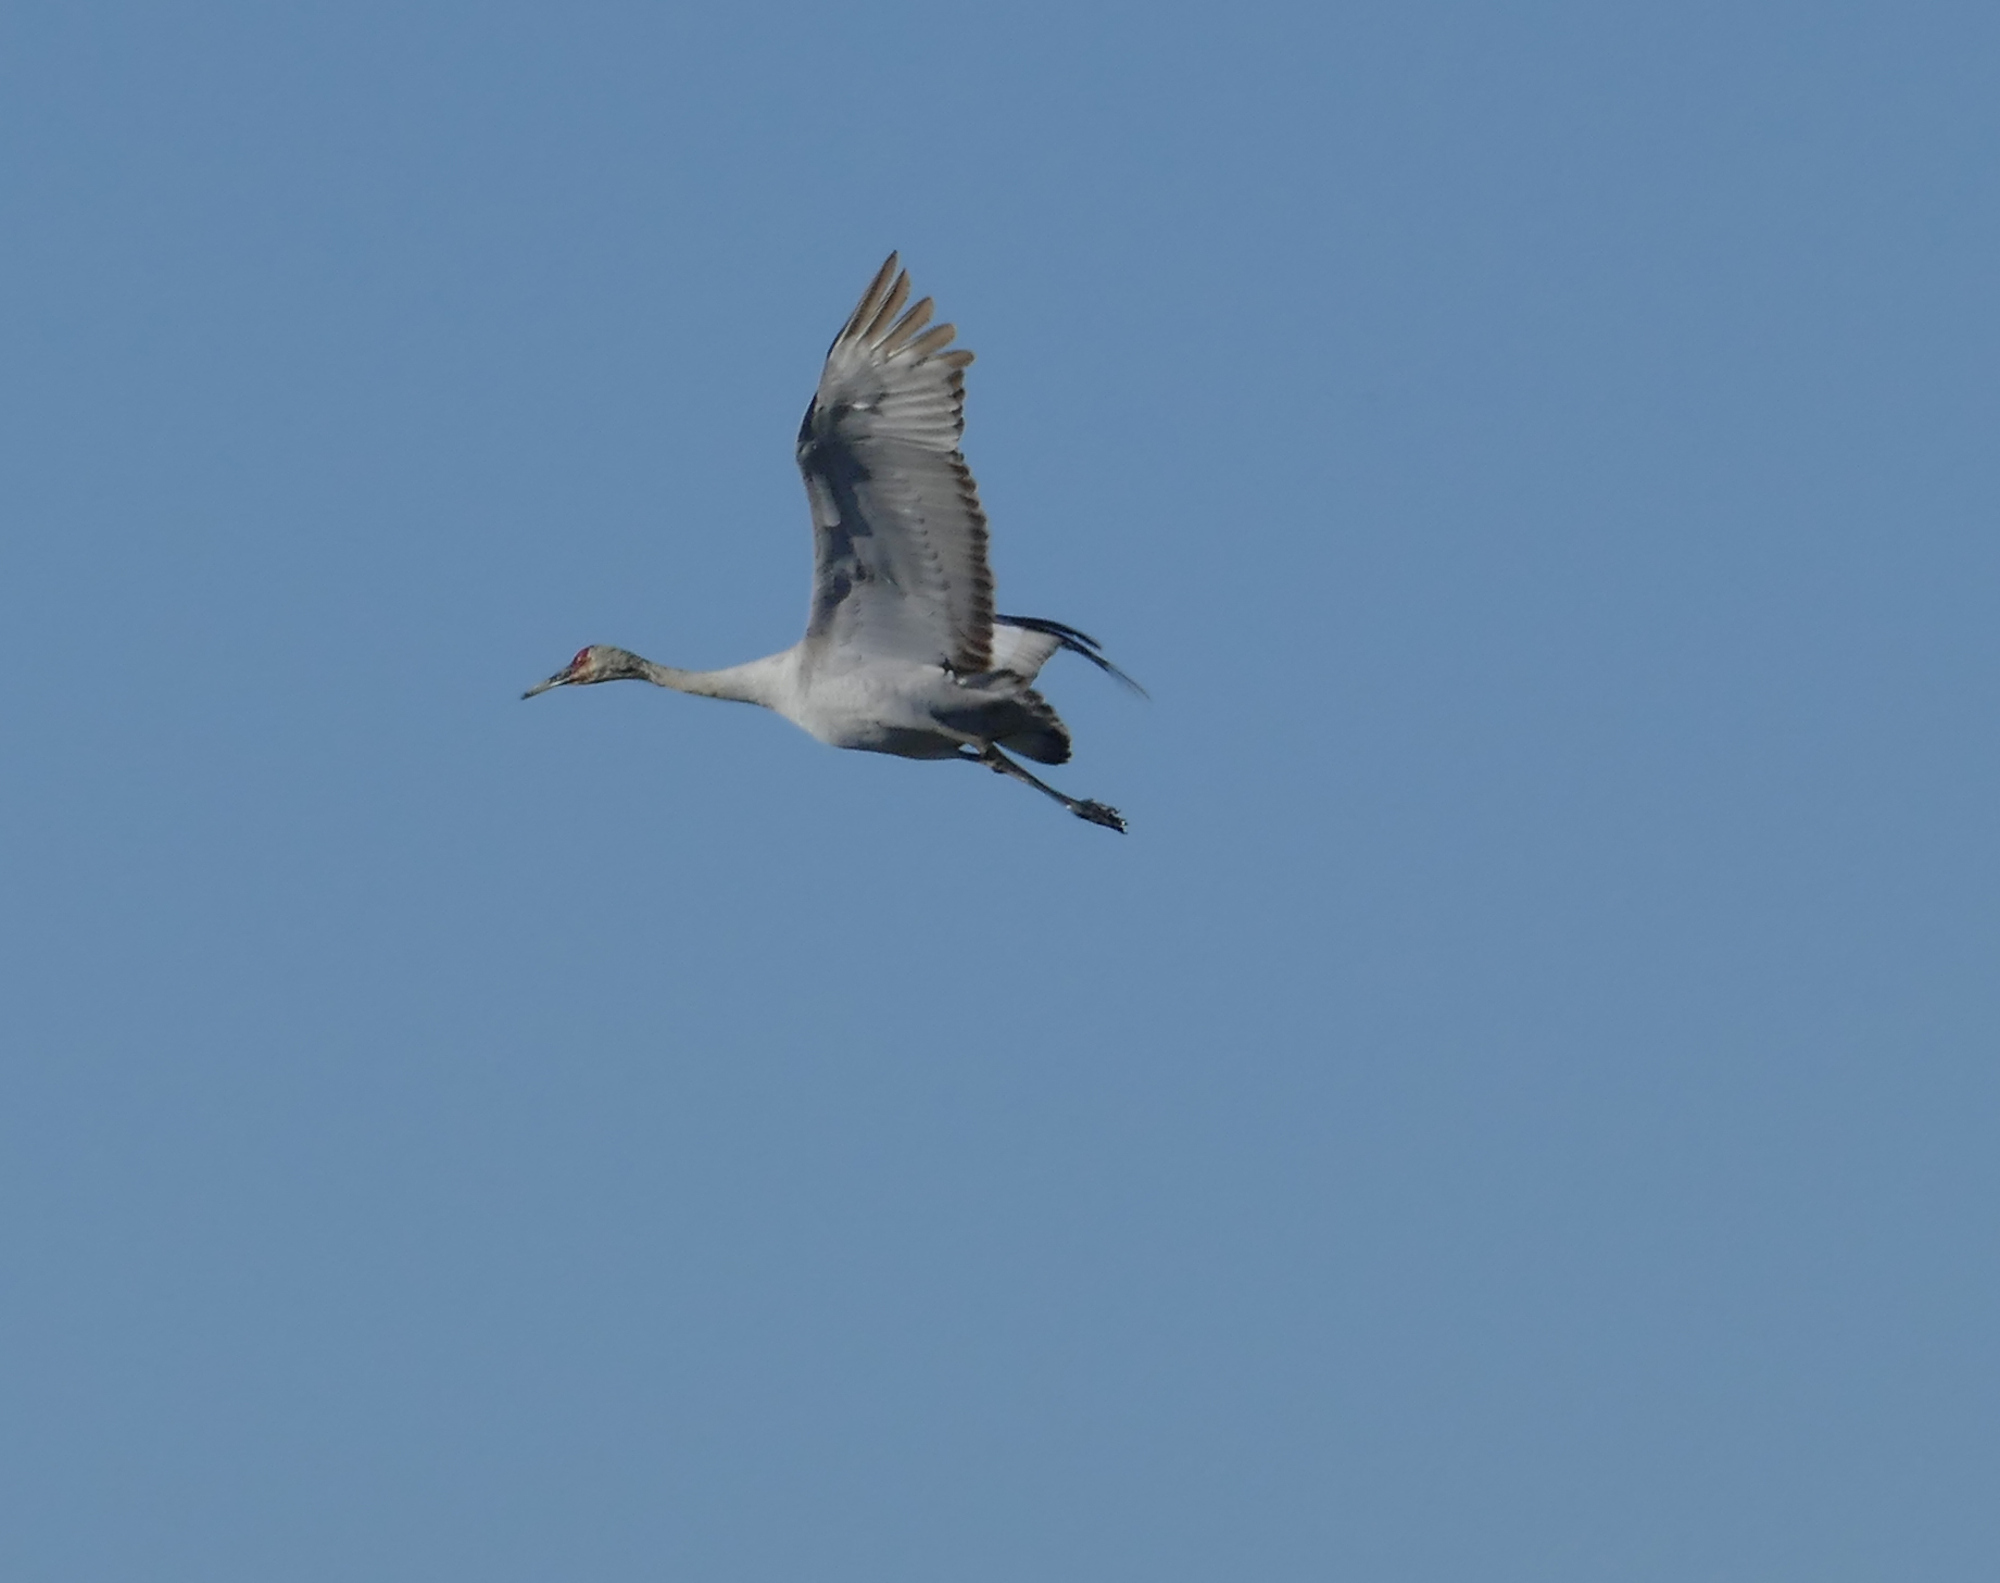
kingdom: Animalia
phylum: Chordata
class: Aves
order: Gruiformes
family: Gruidae
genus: Grus
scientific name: Grus canadensis
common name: Sandhill crane
